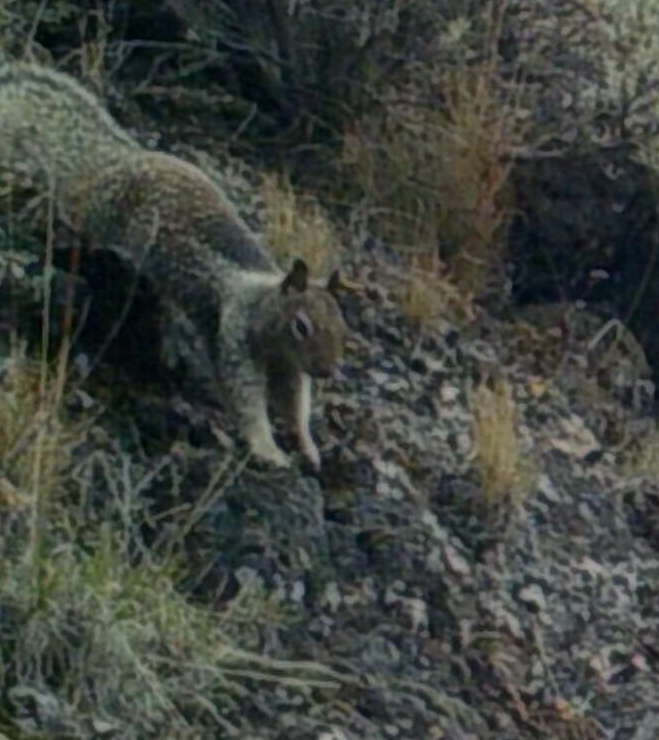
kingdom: Animalia
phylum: Chordata
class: Mammalia
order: Rodentia
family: Sciuridae
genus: Otospermophilus
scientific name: Otospermophilus beecheyi
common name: California ground squirrel
